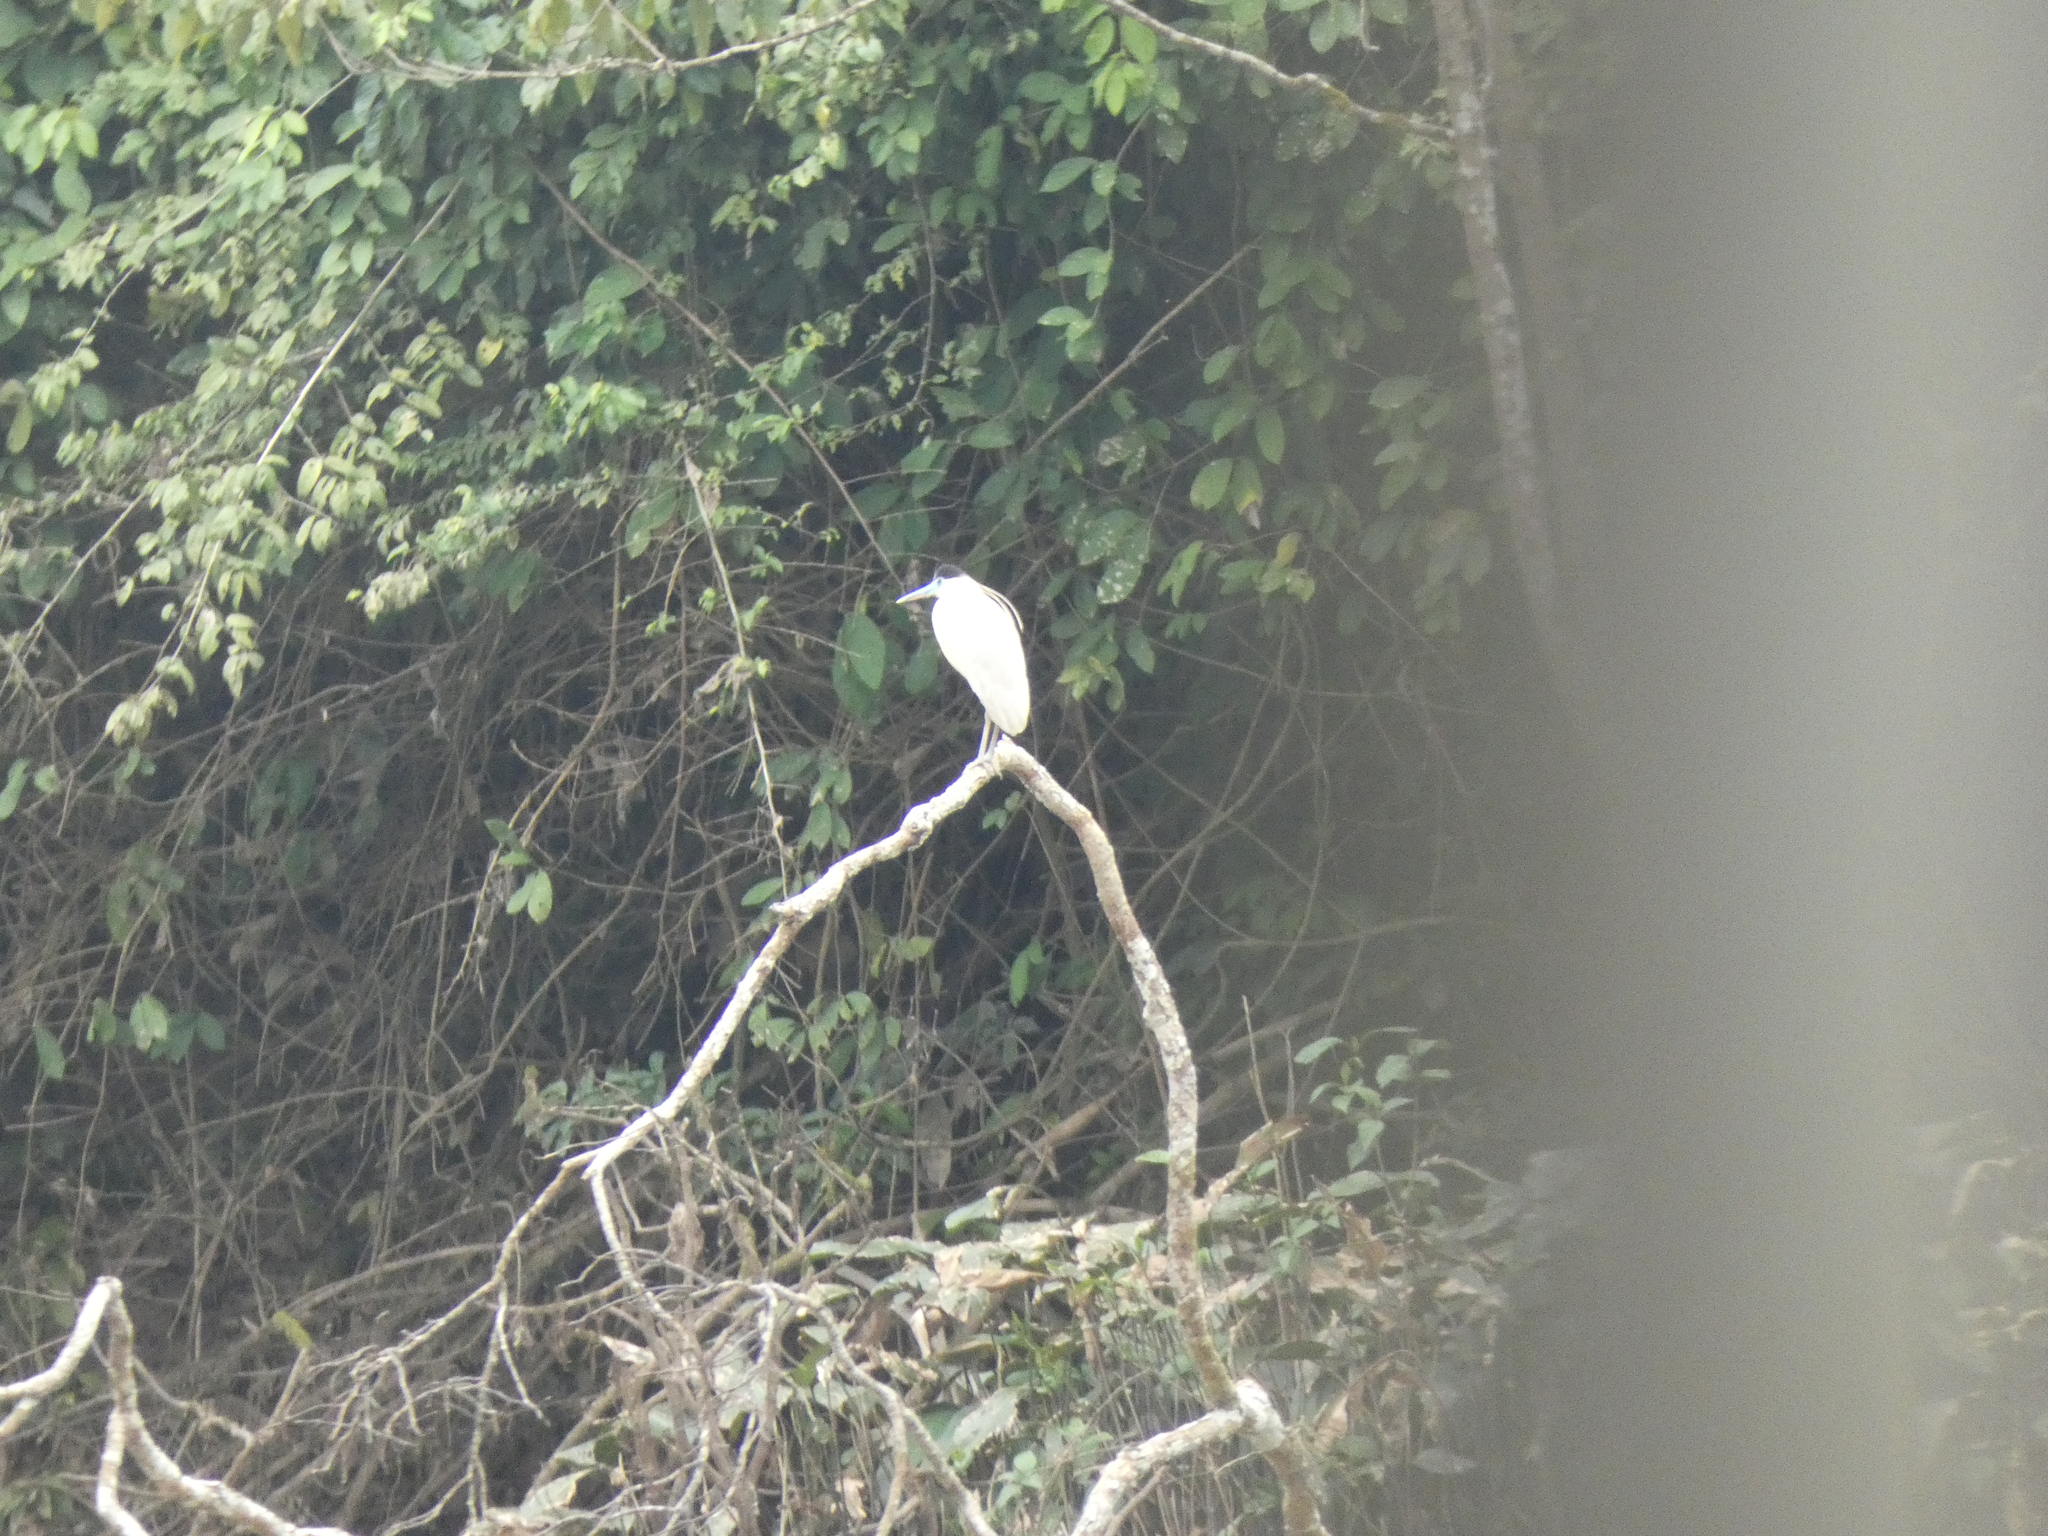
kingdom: Animalia
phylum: Chordata
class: Aves
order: Pelecaniformes
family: Ardeidae
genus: Pilherodius
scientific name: Pilherodius pileatus
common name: Capped heron
